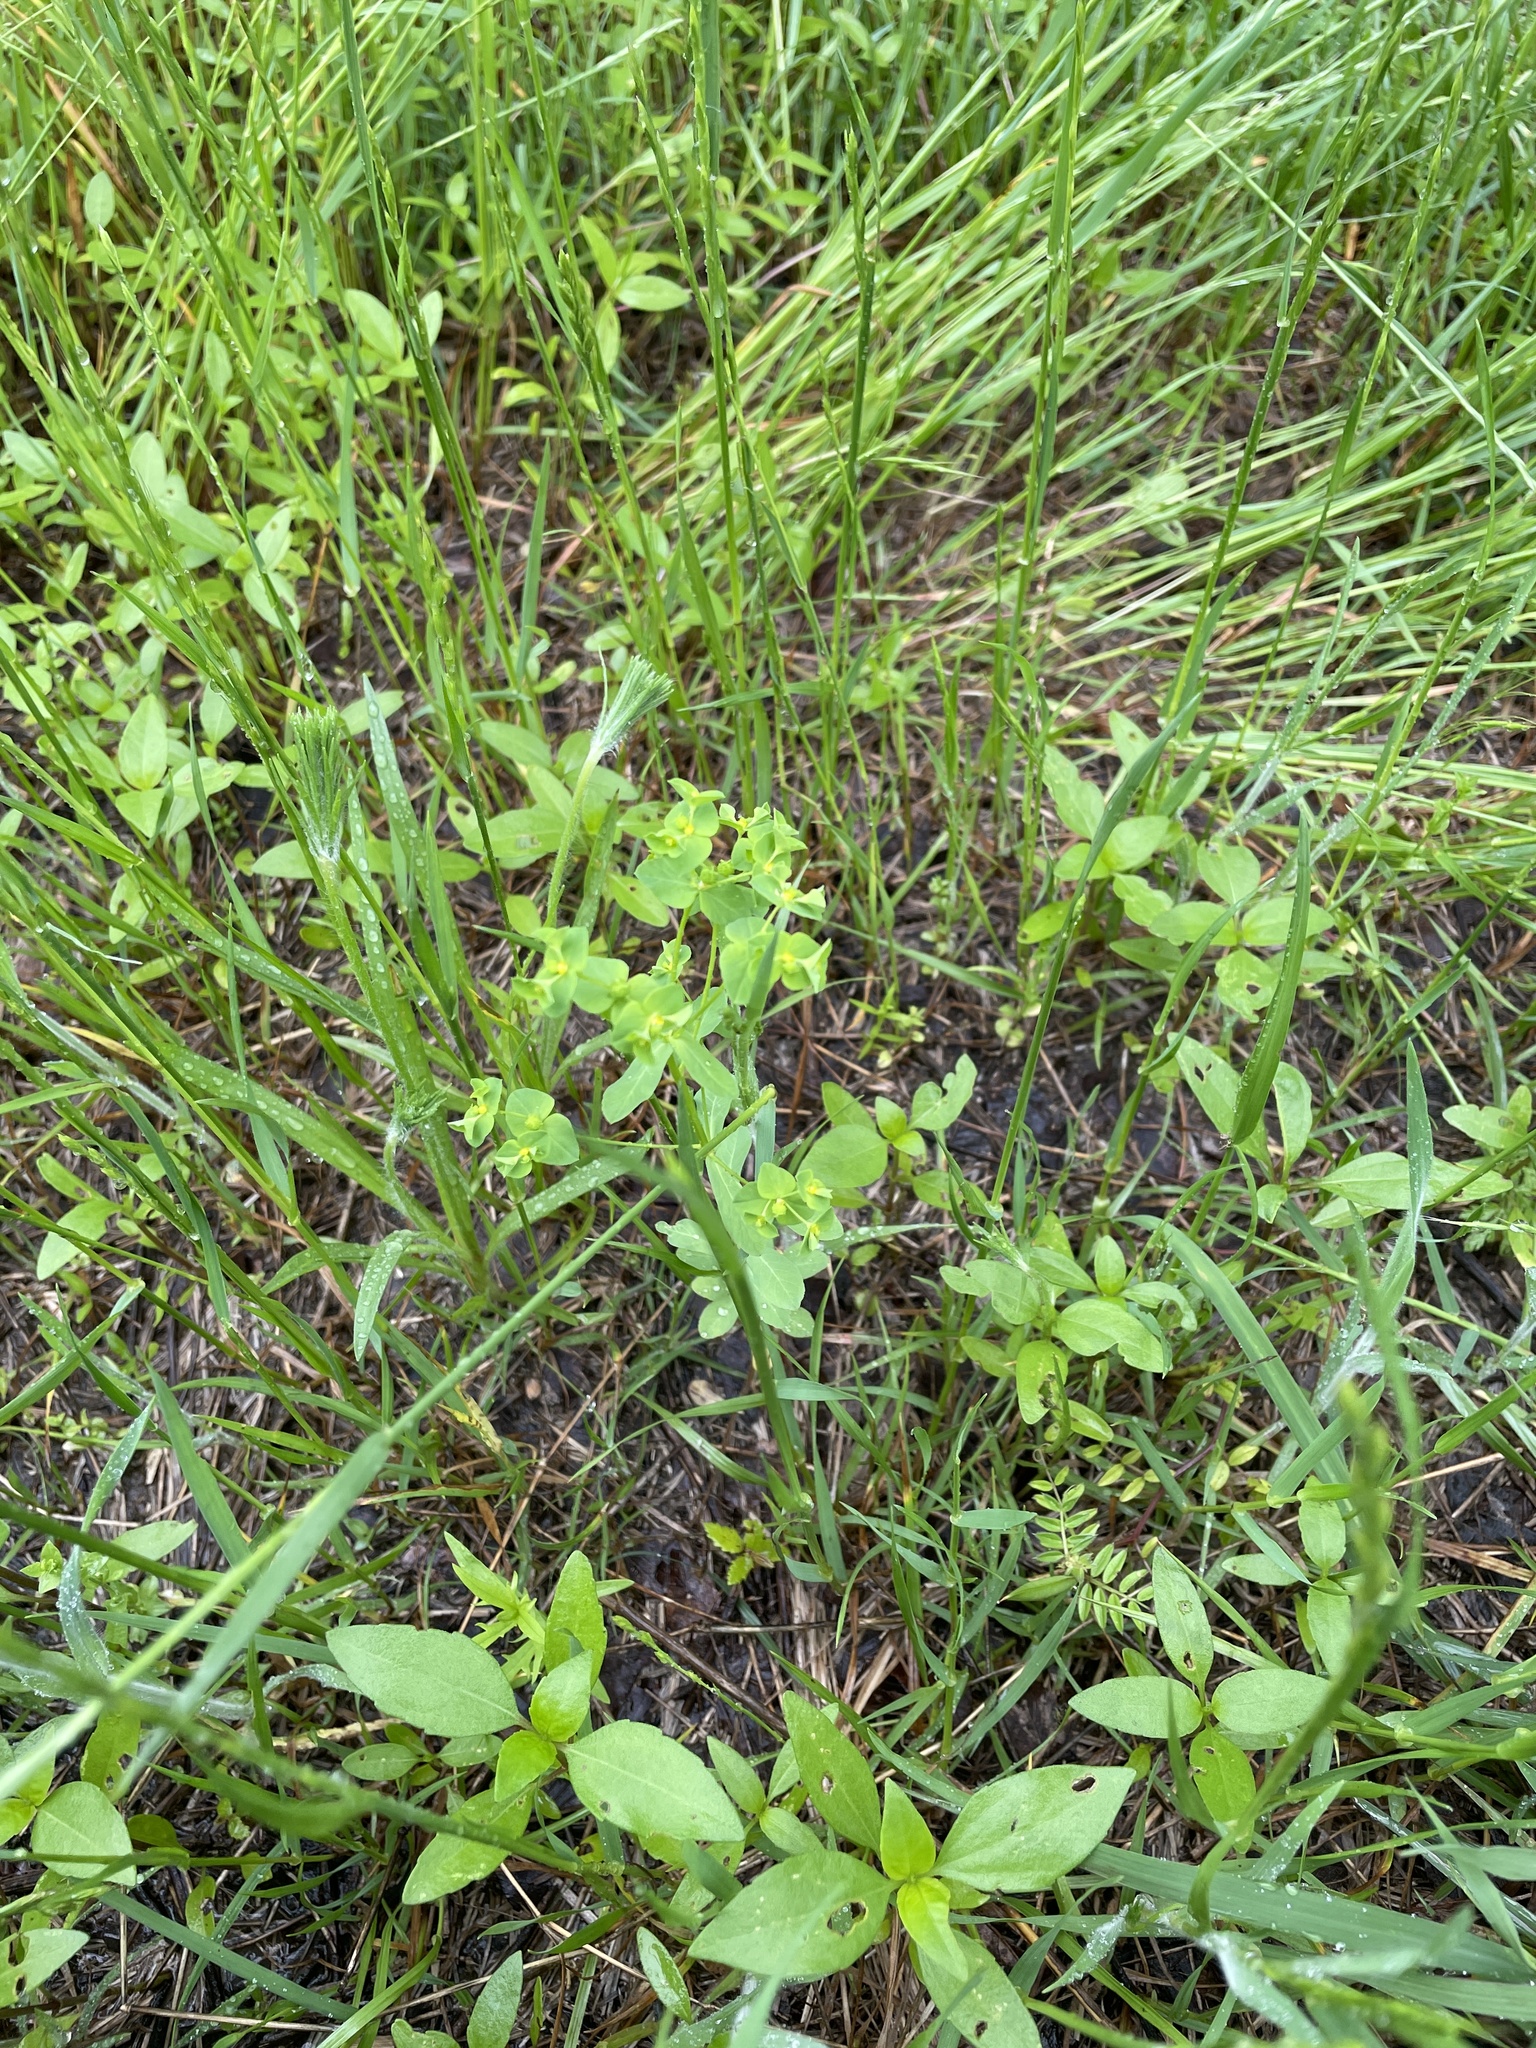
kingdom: Plantae
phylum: Tracheophyta
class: Magnoliopsida
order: Malpighiales
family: Euphorbiaceae
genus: Euphorbia
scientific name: Euphorbia spathulata
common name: Blunt spurge
